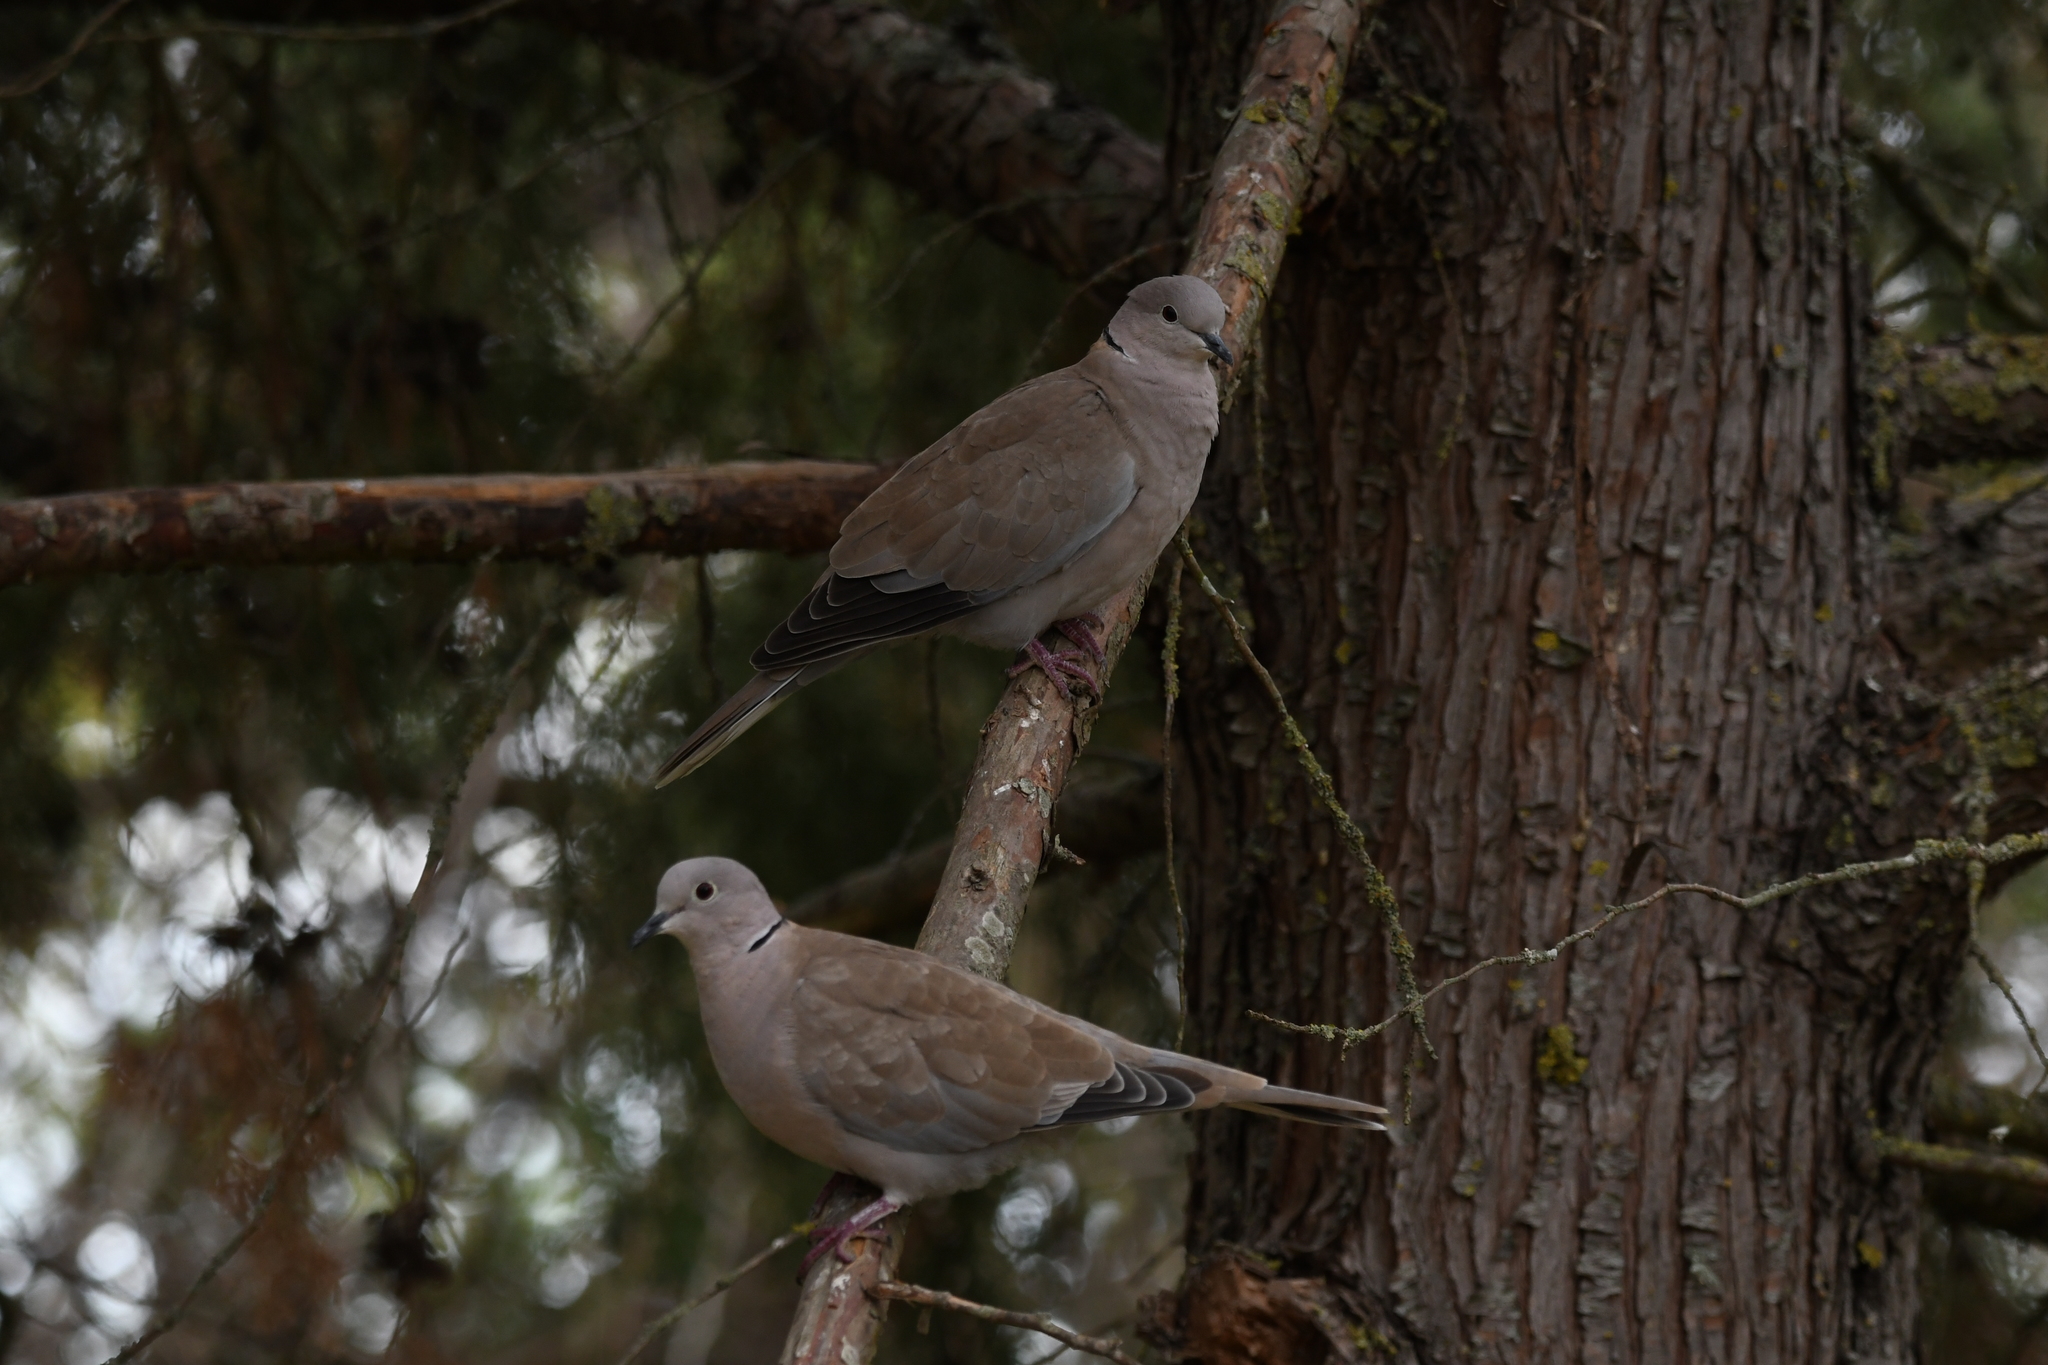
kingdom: Animalia
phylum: Chordata
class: Aves
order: Columbiformes
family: Columbidae
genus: Streptopelia
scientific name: Streptopelia decaocto
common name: Eurasian collared dove
